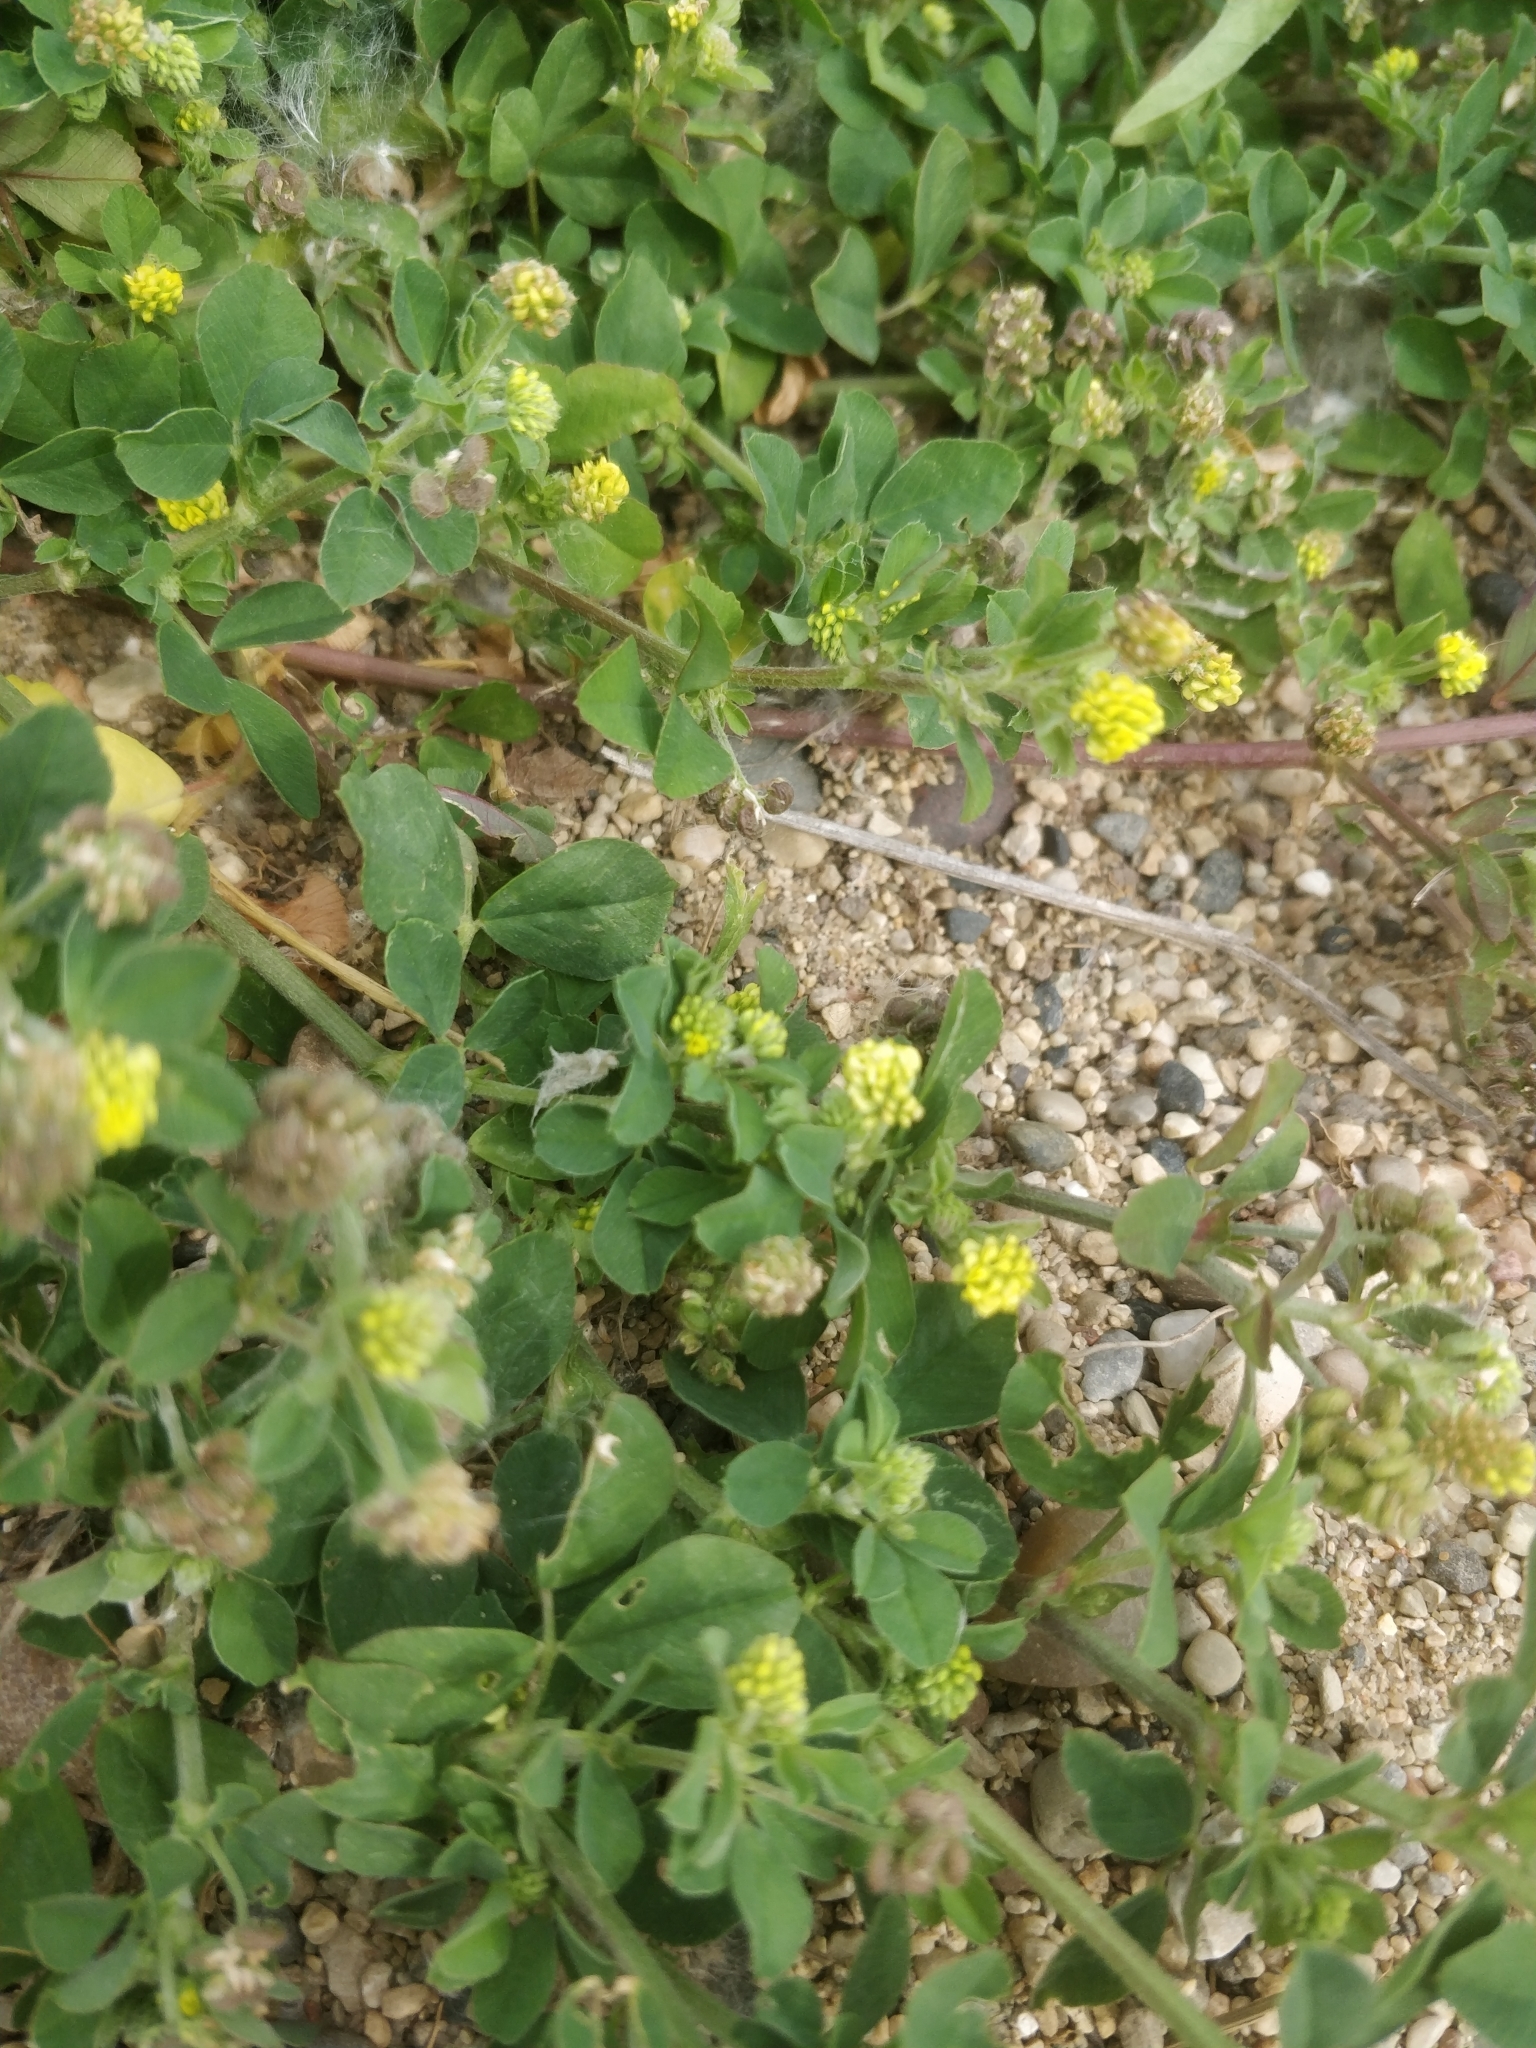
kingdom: Plantae
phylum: Tracheophyta
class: Magnoliopsida
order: Fabales
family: Fabaceae
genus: Medicago
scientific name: Medicago lupulina
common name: Black medick
